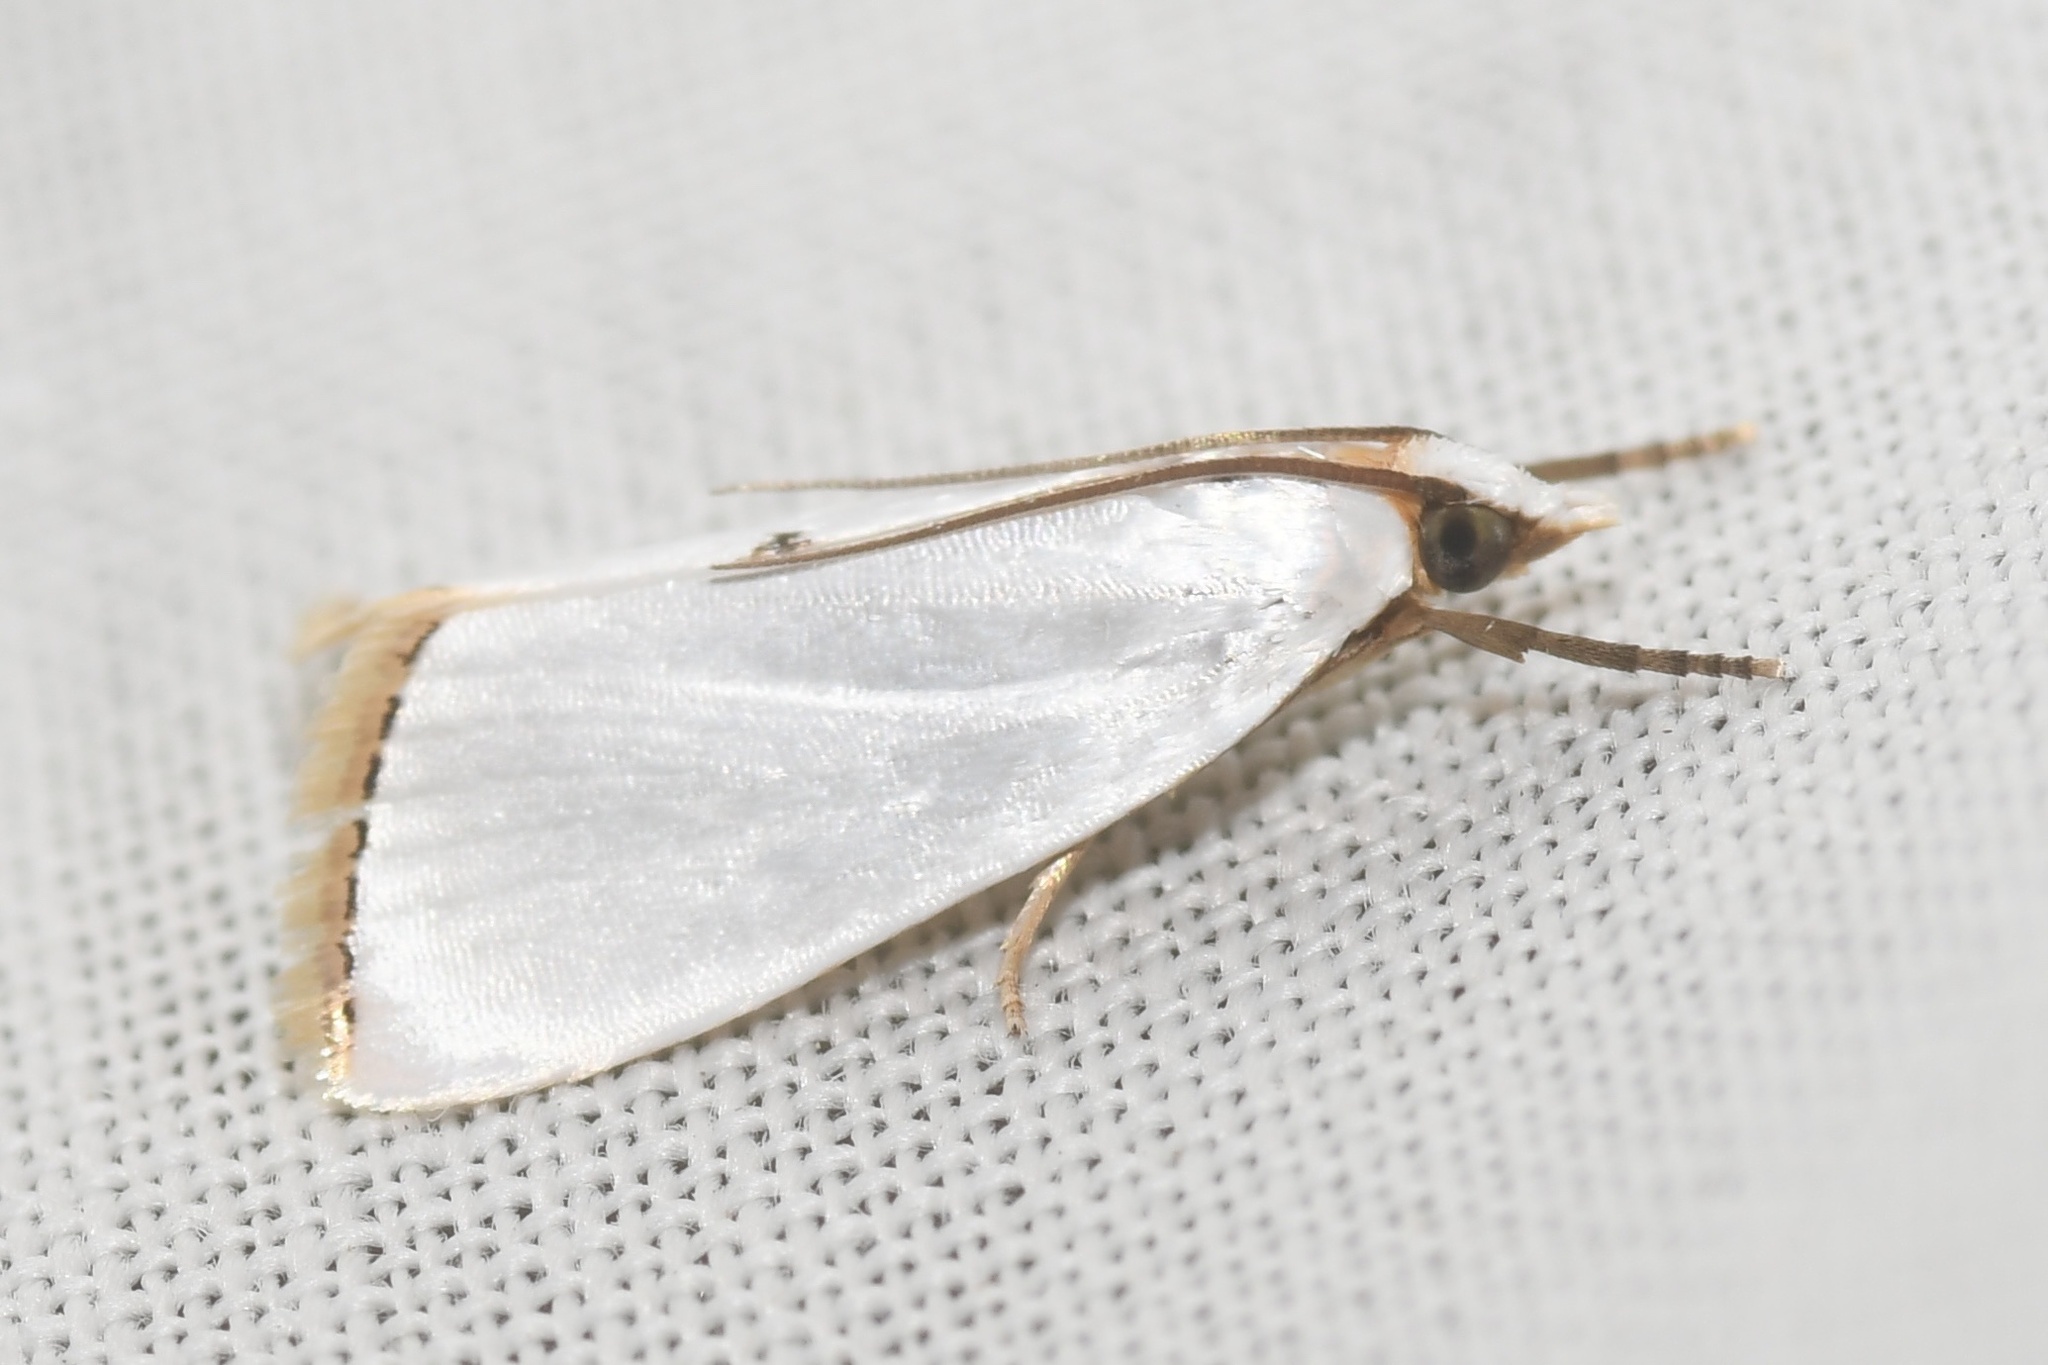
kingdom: Animalia
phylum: Arthropoda
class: Insecta
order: Lepidoptera
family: Crambidae
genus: Argyria
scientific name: Argyria nivalis
